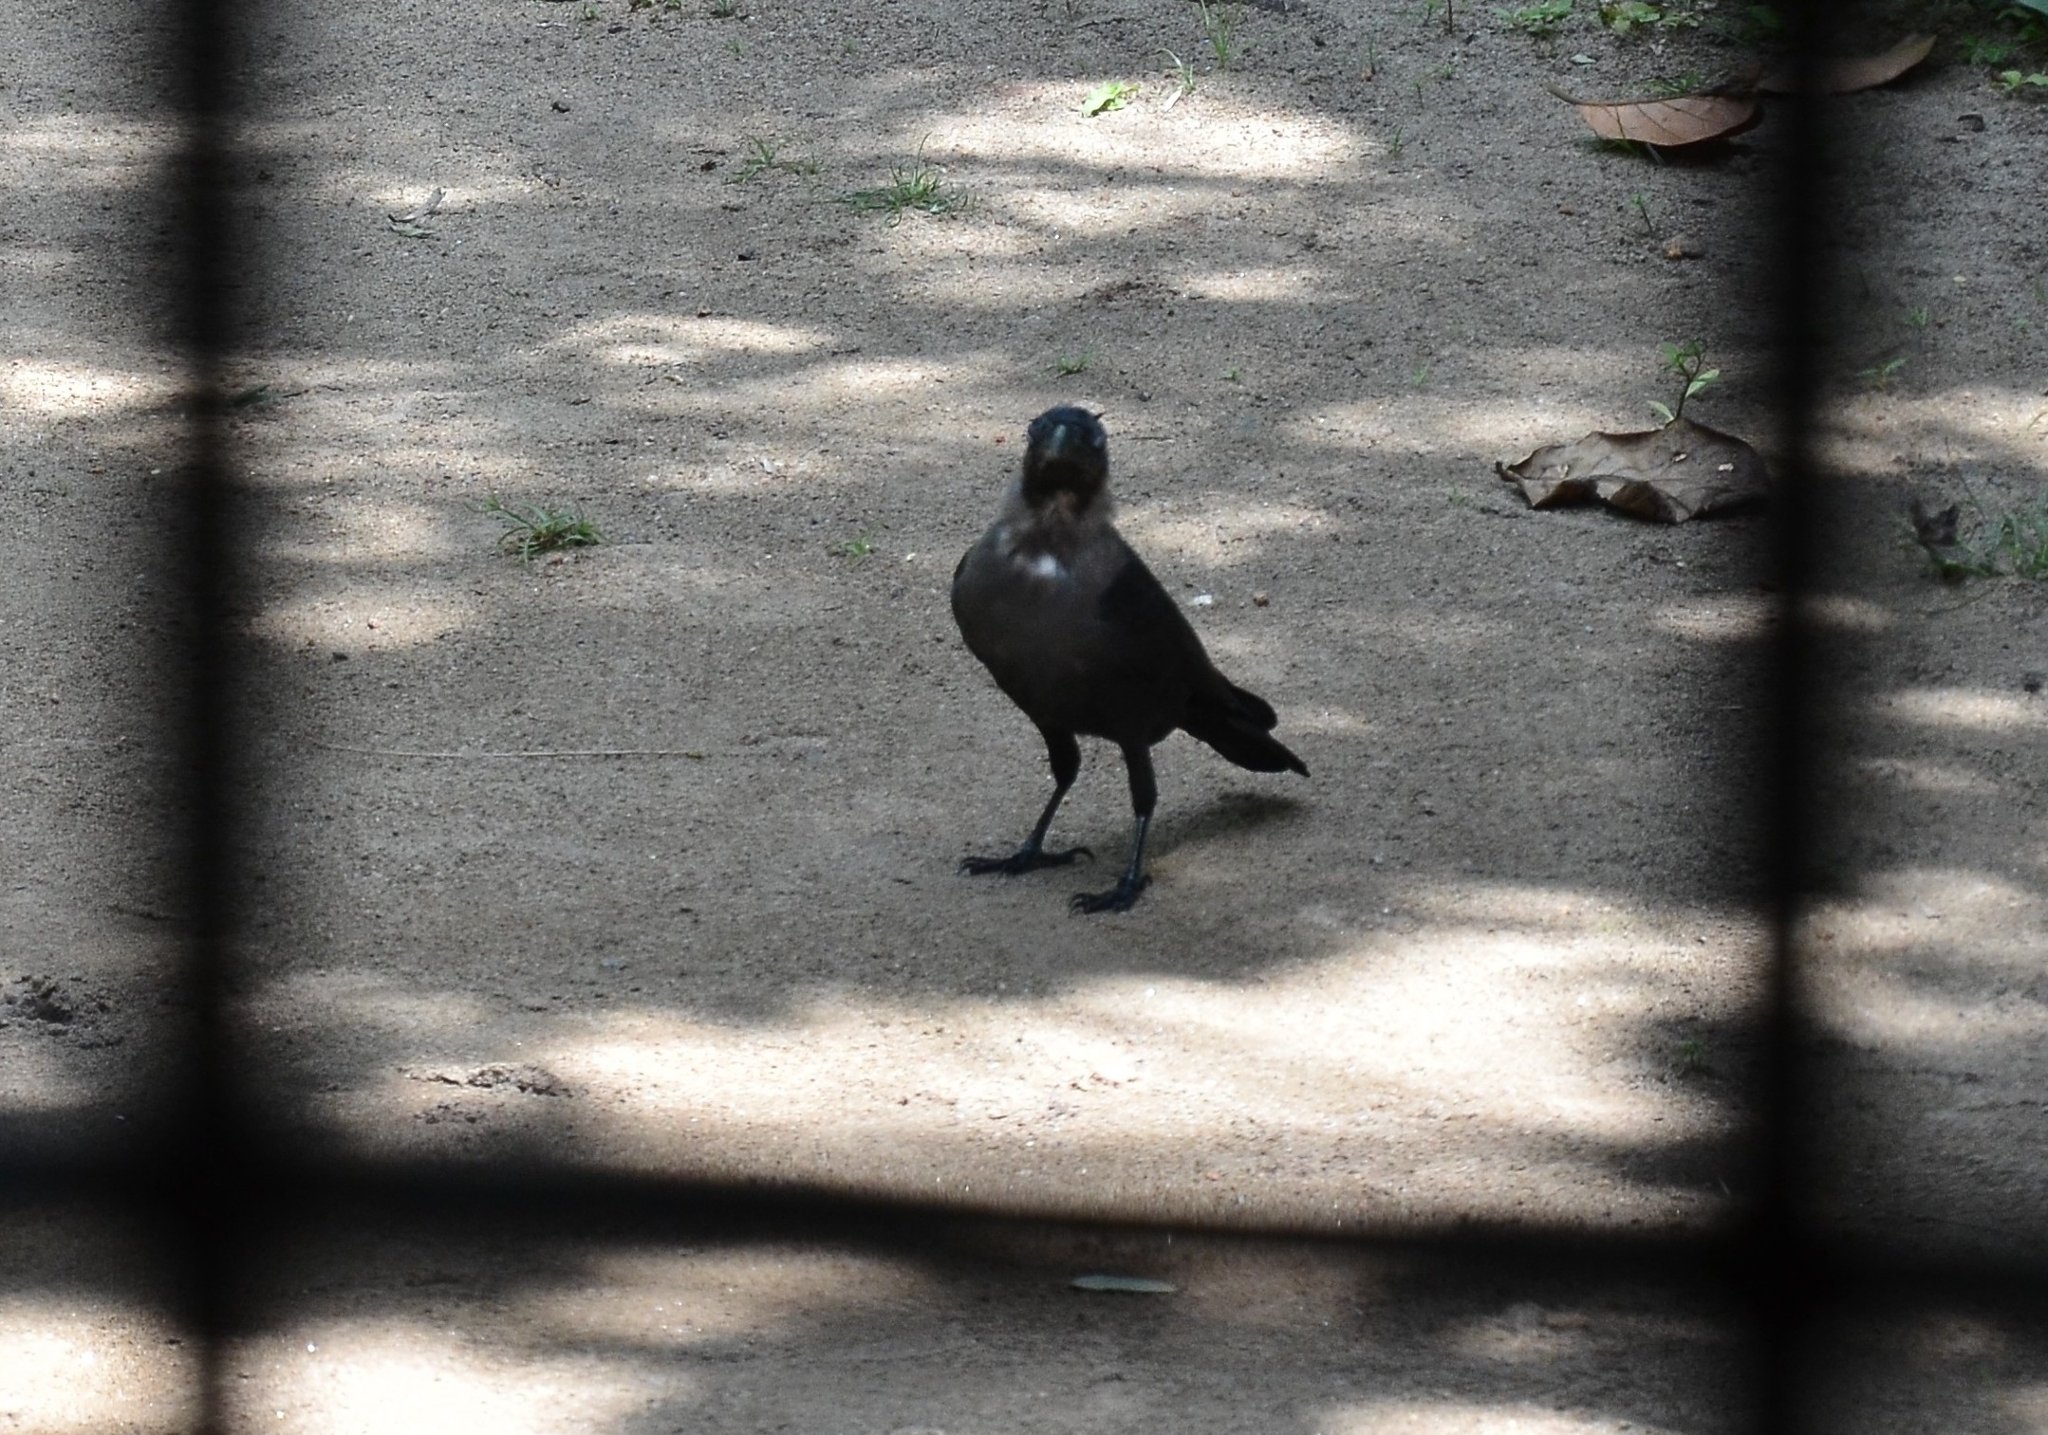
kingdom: Animalia
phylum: Chordata
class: Aves
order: Passeriformes
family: Corvidae
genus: Corvus
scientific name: Corvus splendens
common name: House crow
